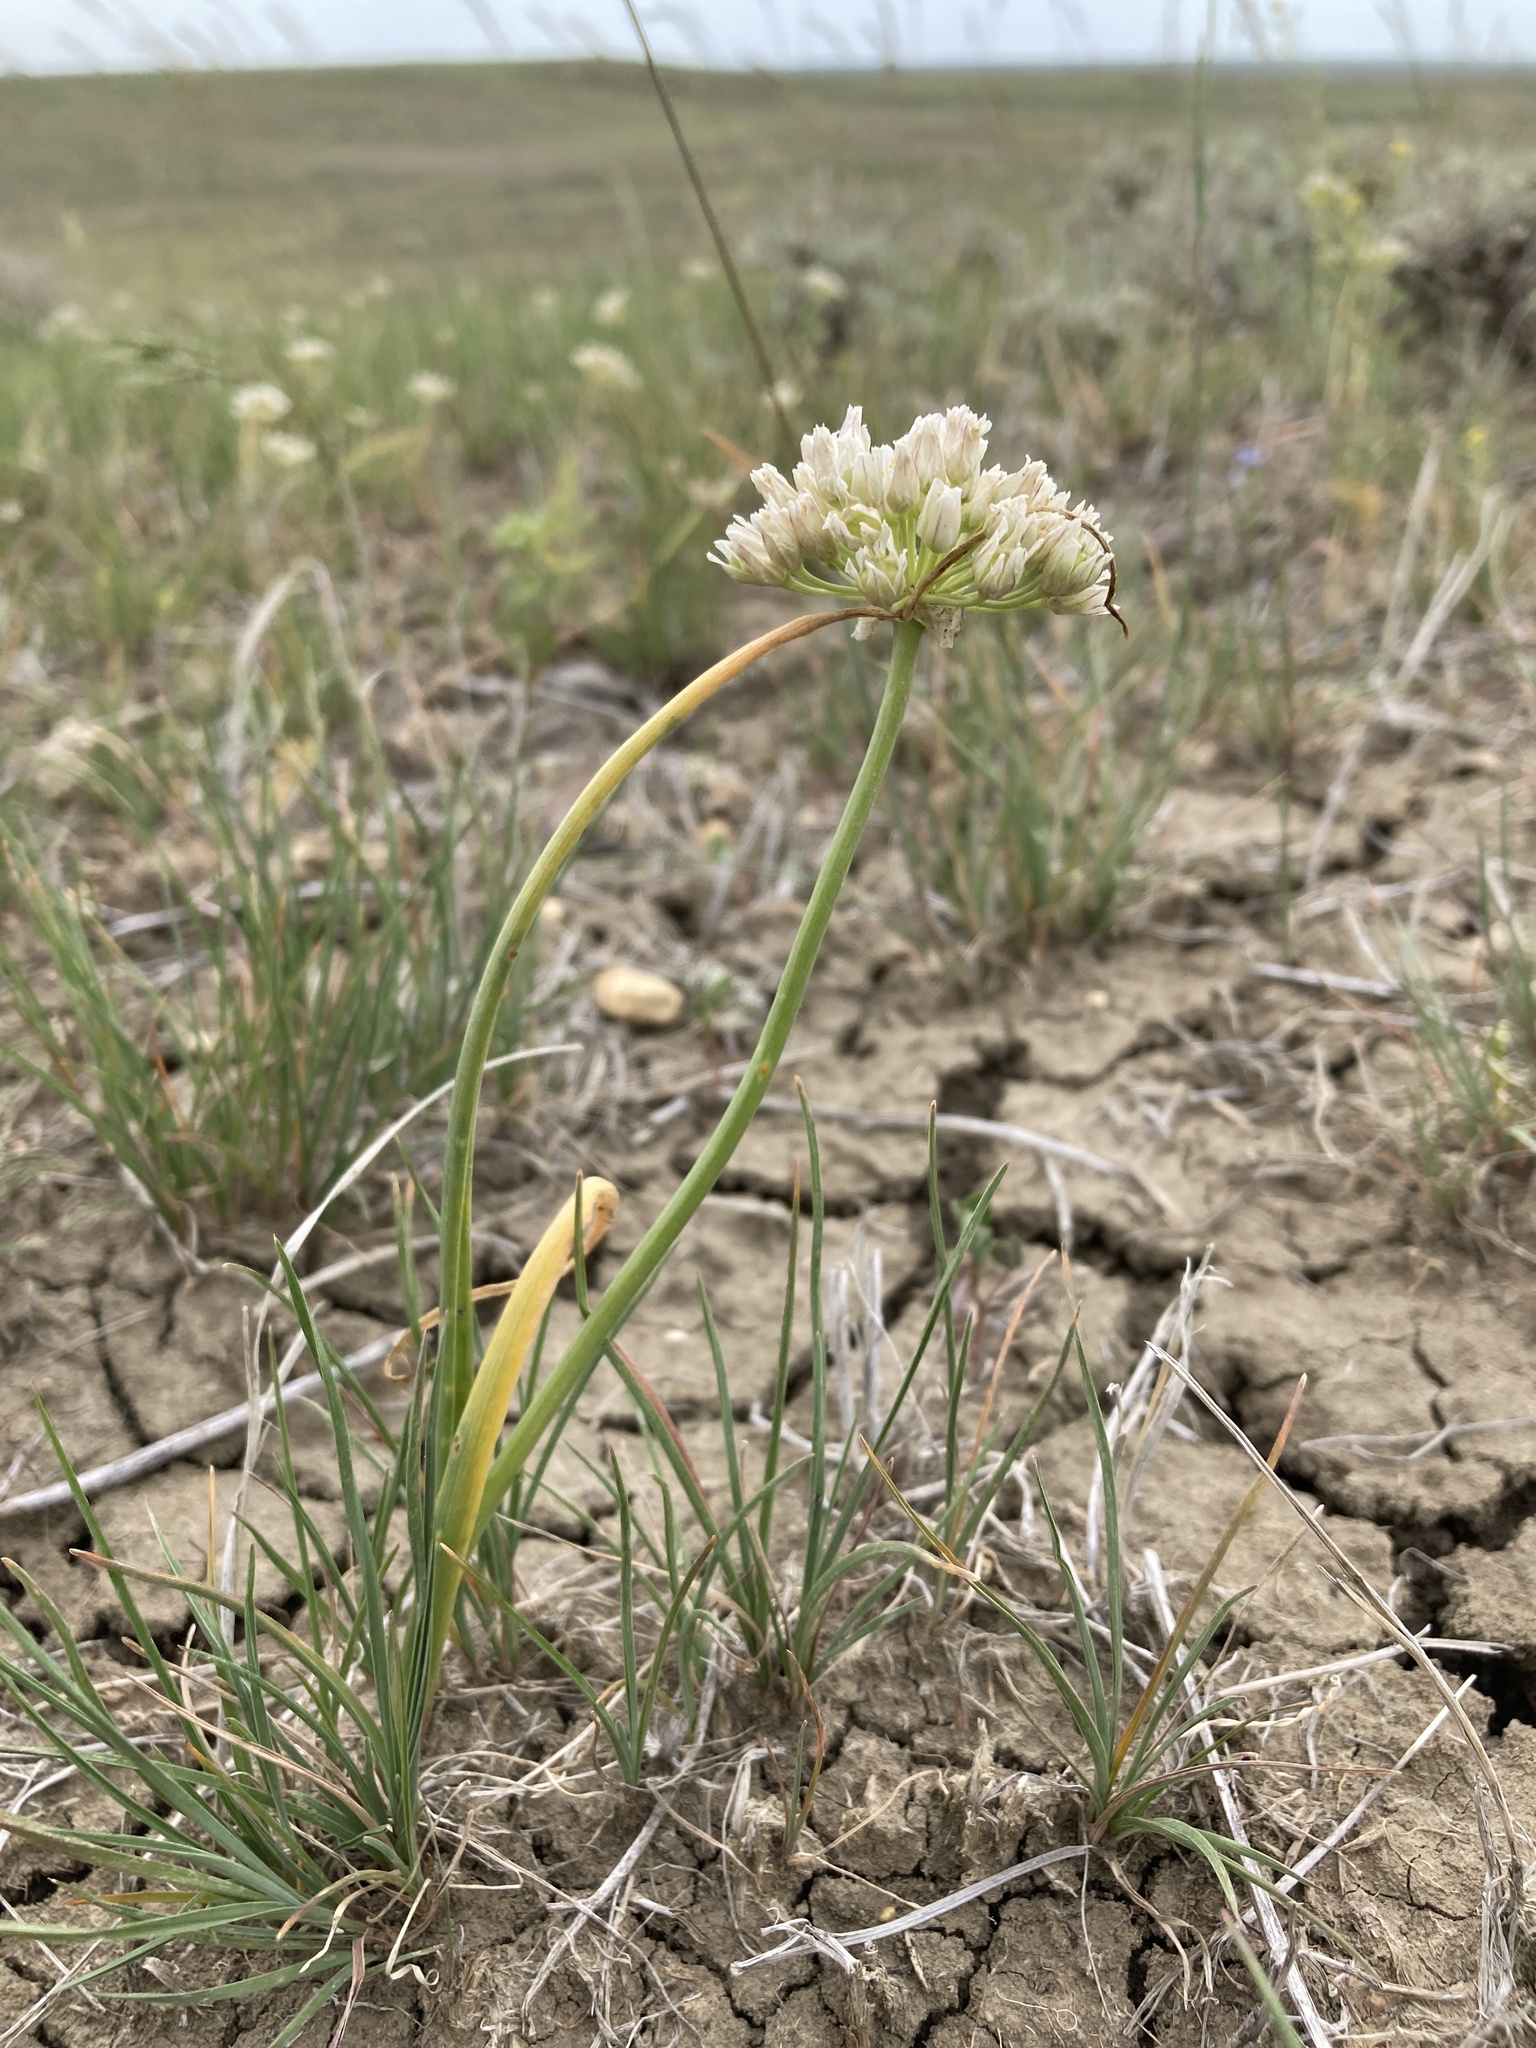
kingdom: Plantae
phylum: Tracheophyta
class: Liliopsida
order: Asparagales
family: Amaryllidaceae
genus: Allium
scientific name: Allium textile
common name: Prairie onion
